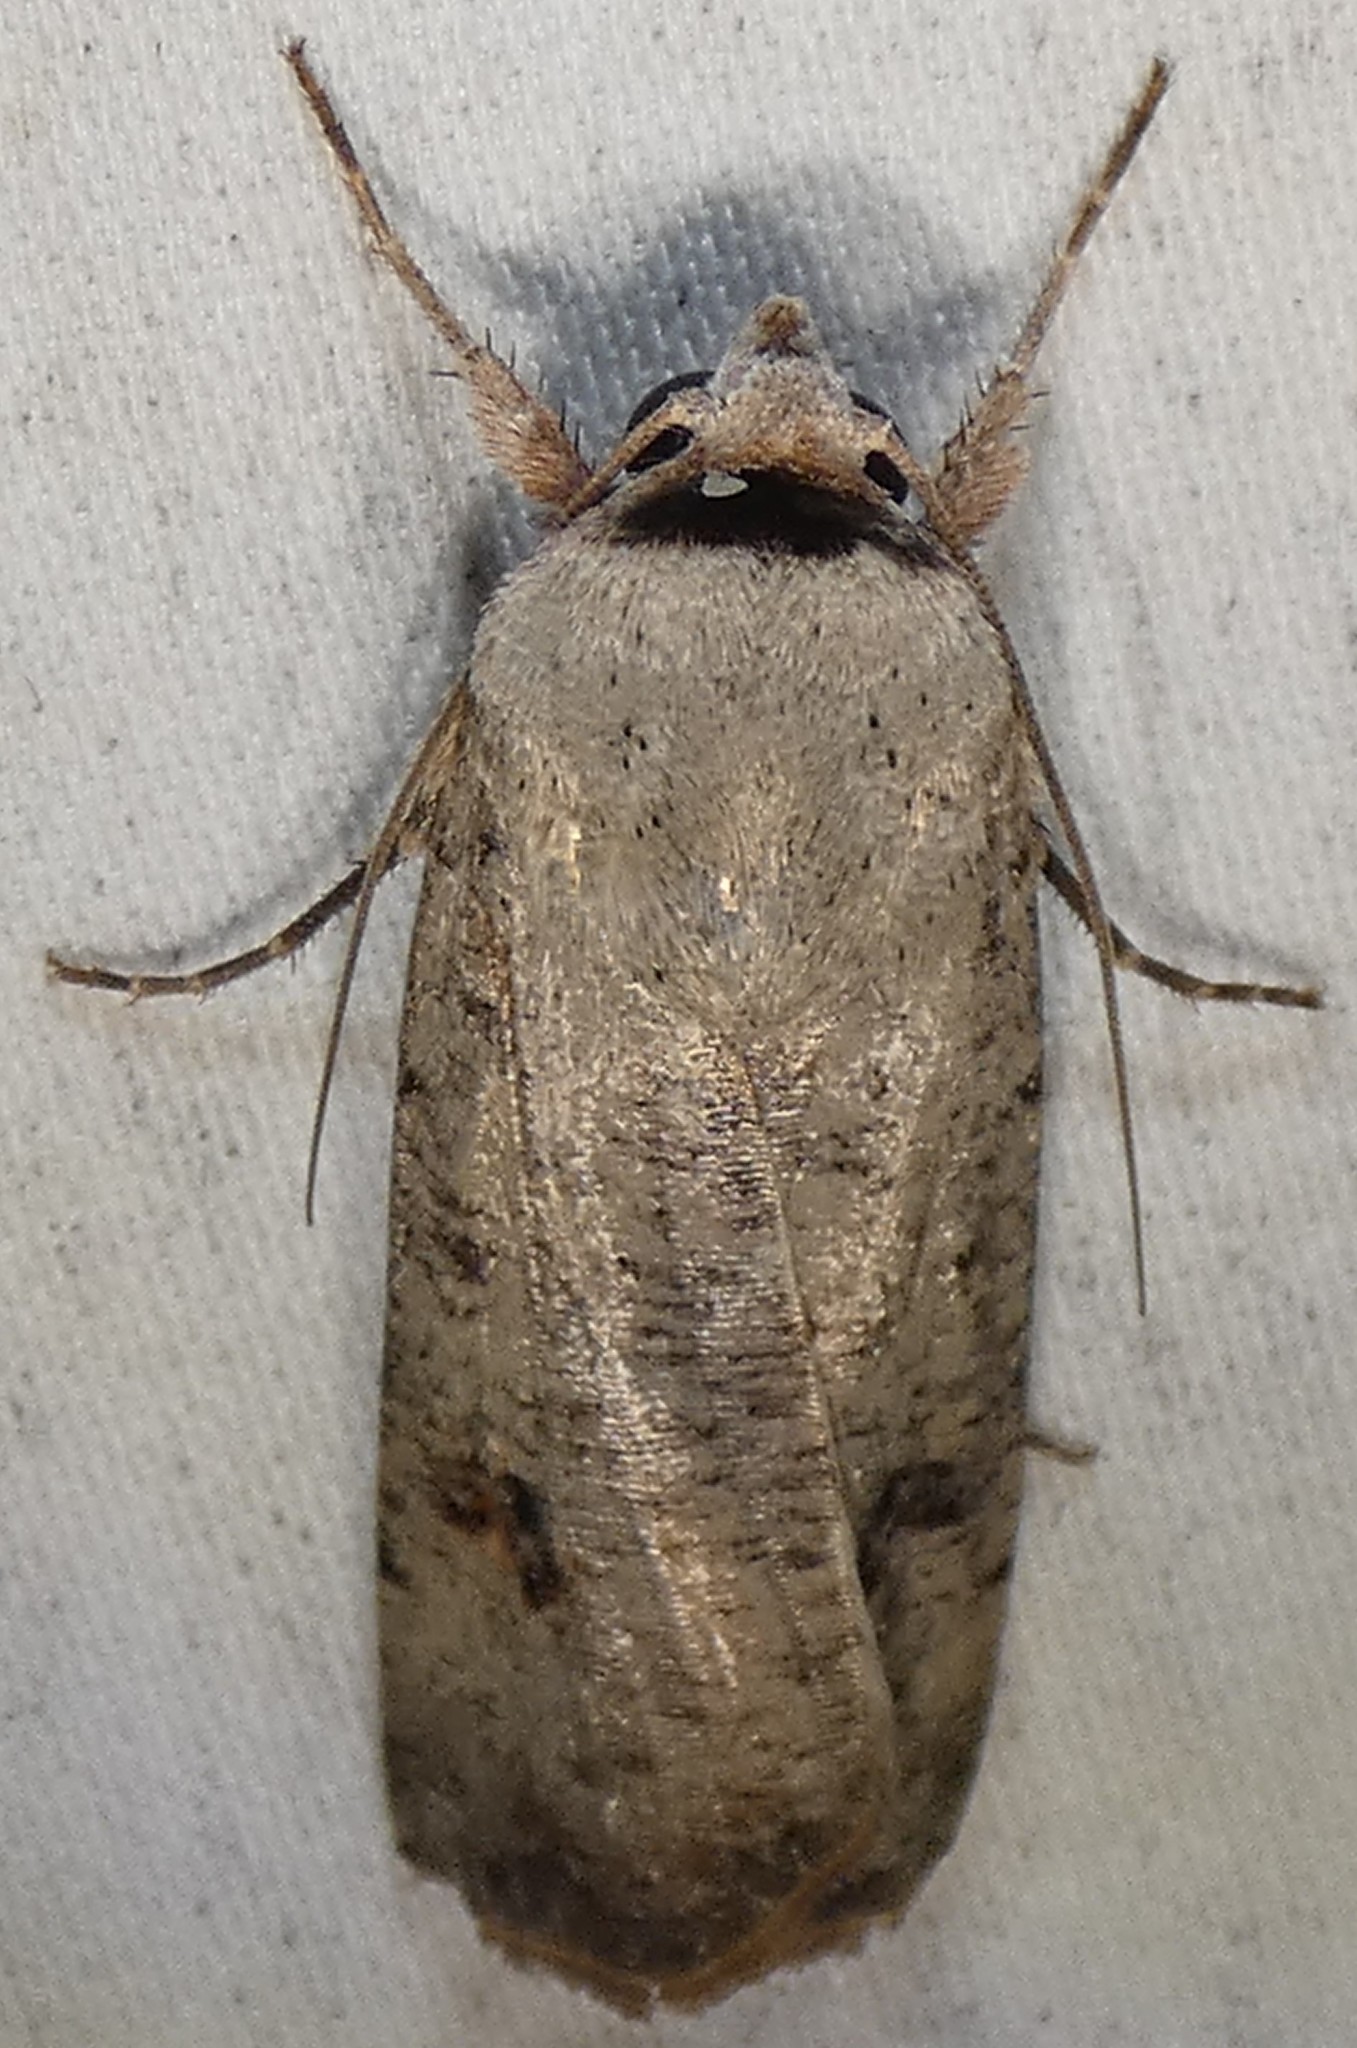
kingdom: Animalia
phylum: Arthropoda
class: Insecta
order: Lepidoptera
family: Noctuidae
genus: Anicla
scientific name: Anicla infecta
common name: Green cutworm
